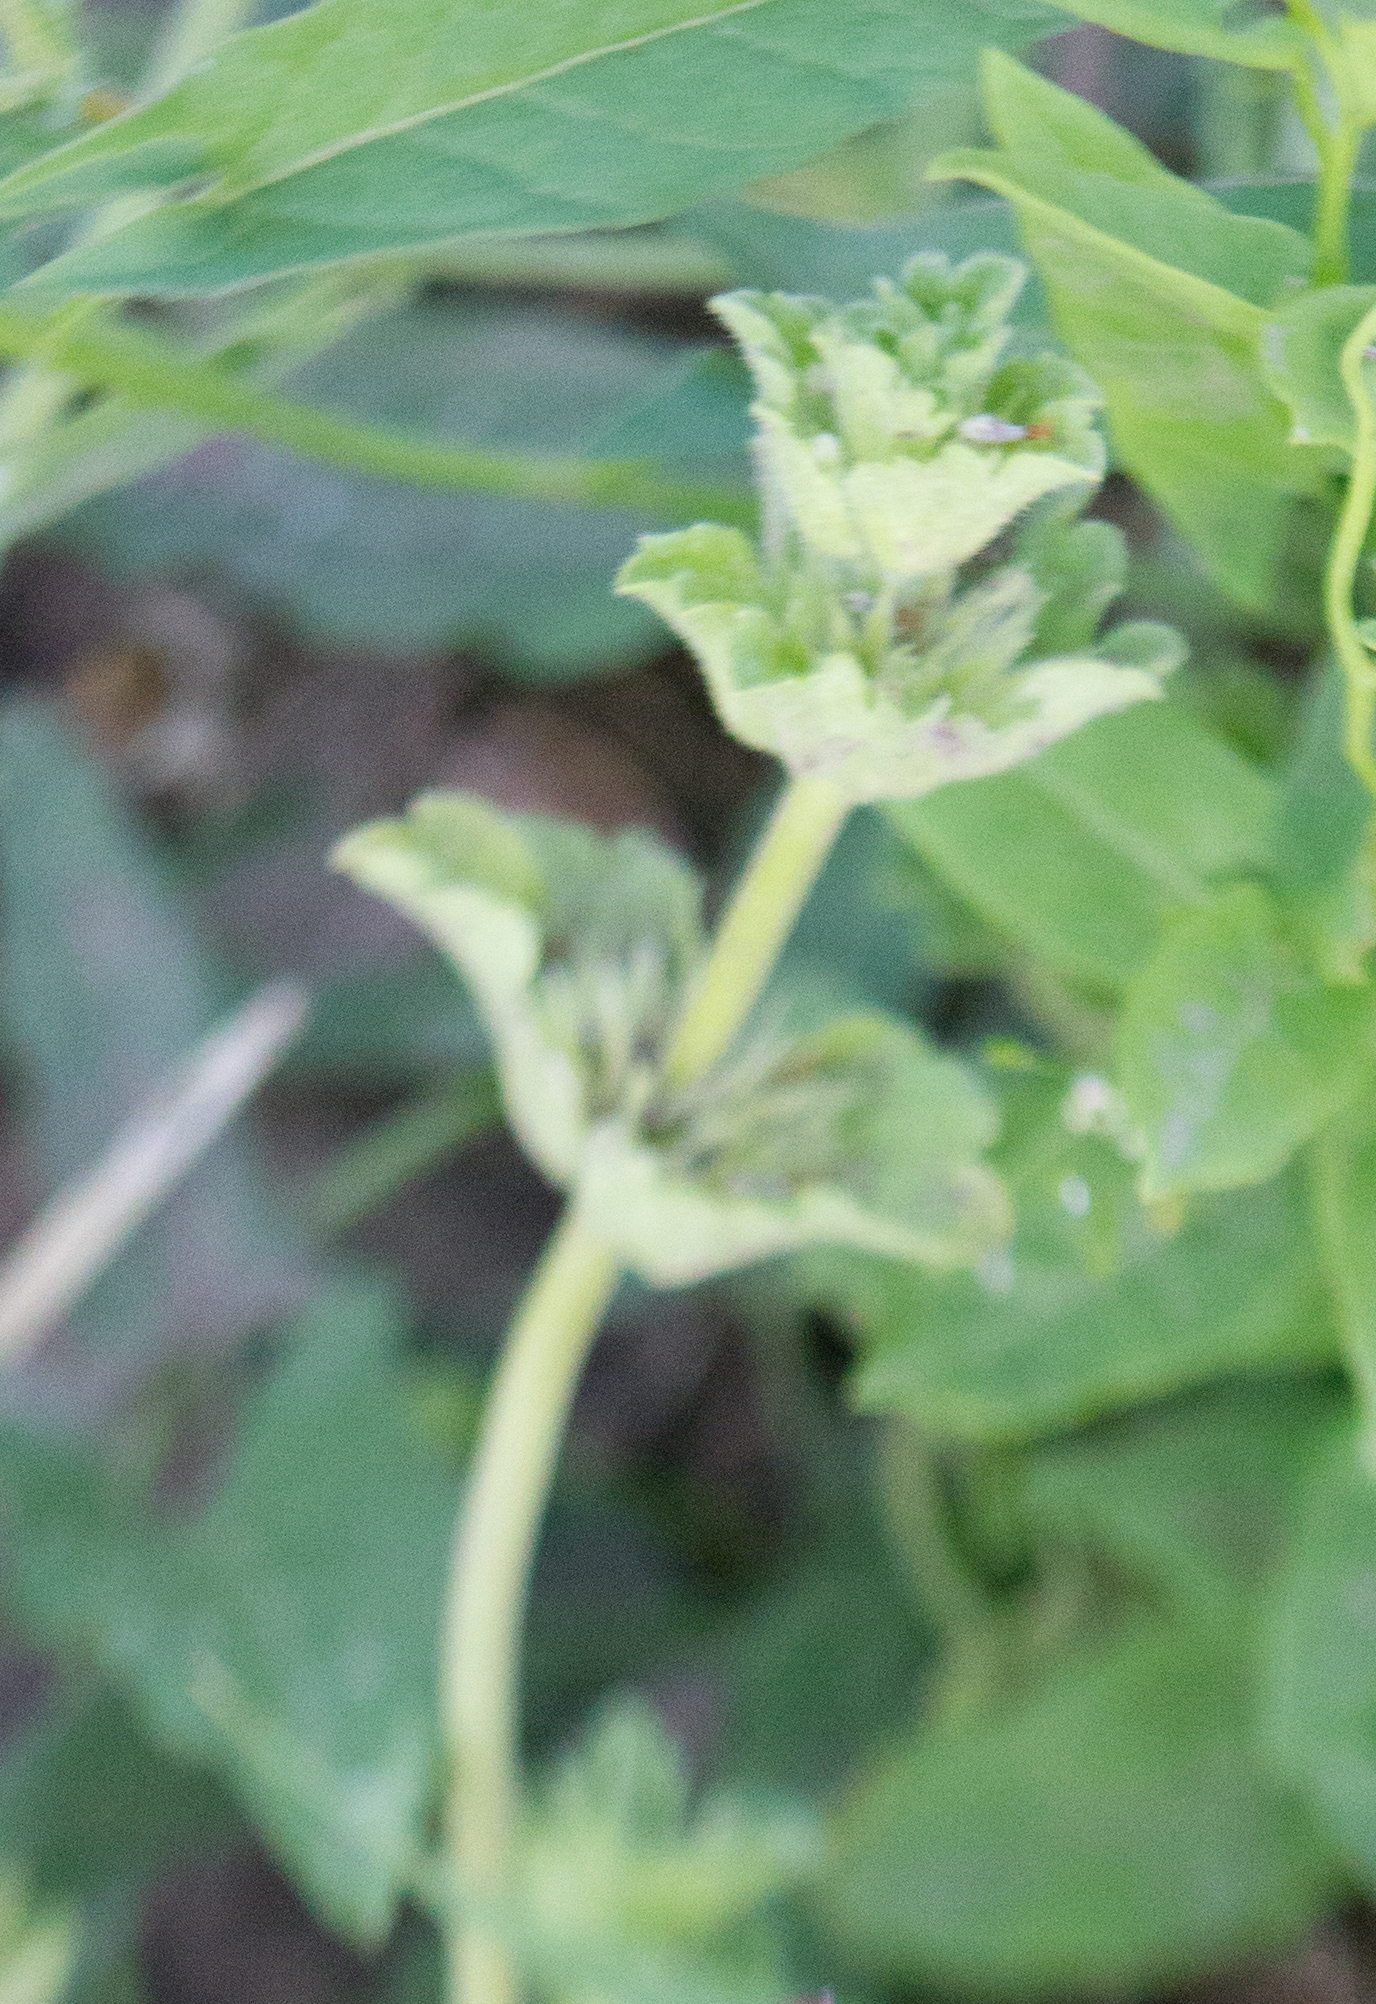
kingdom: Plantae
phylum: Tracheophyta
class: Magnoliopsida
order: Lamiales
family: Lamiaceae
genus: Lamium
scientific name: Lamium amplexicaule
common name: Henbit dead-nettle
